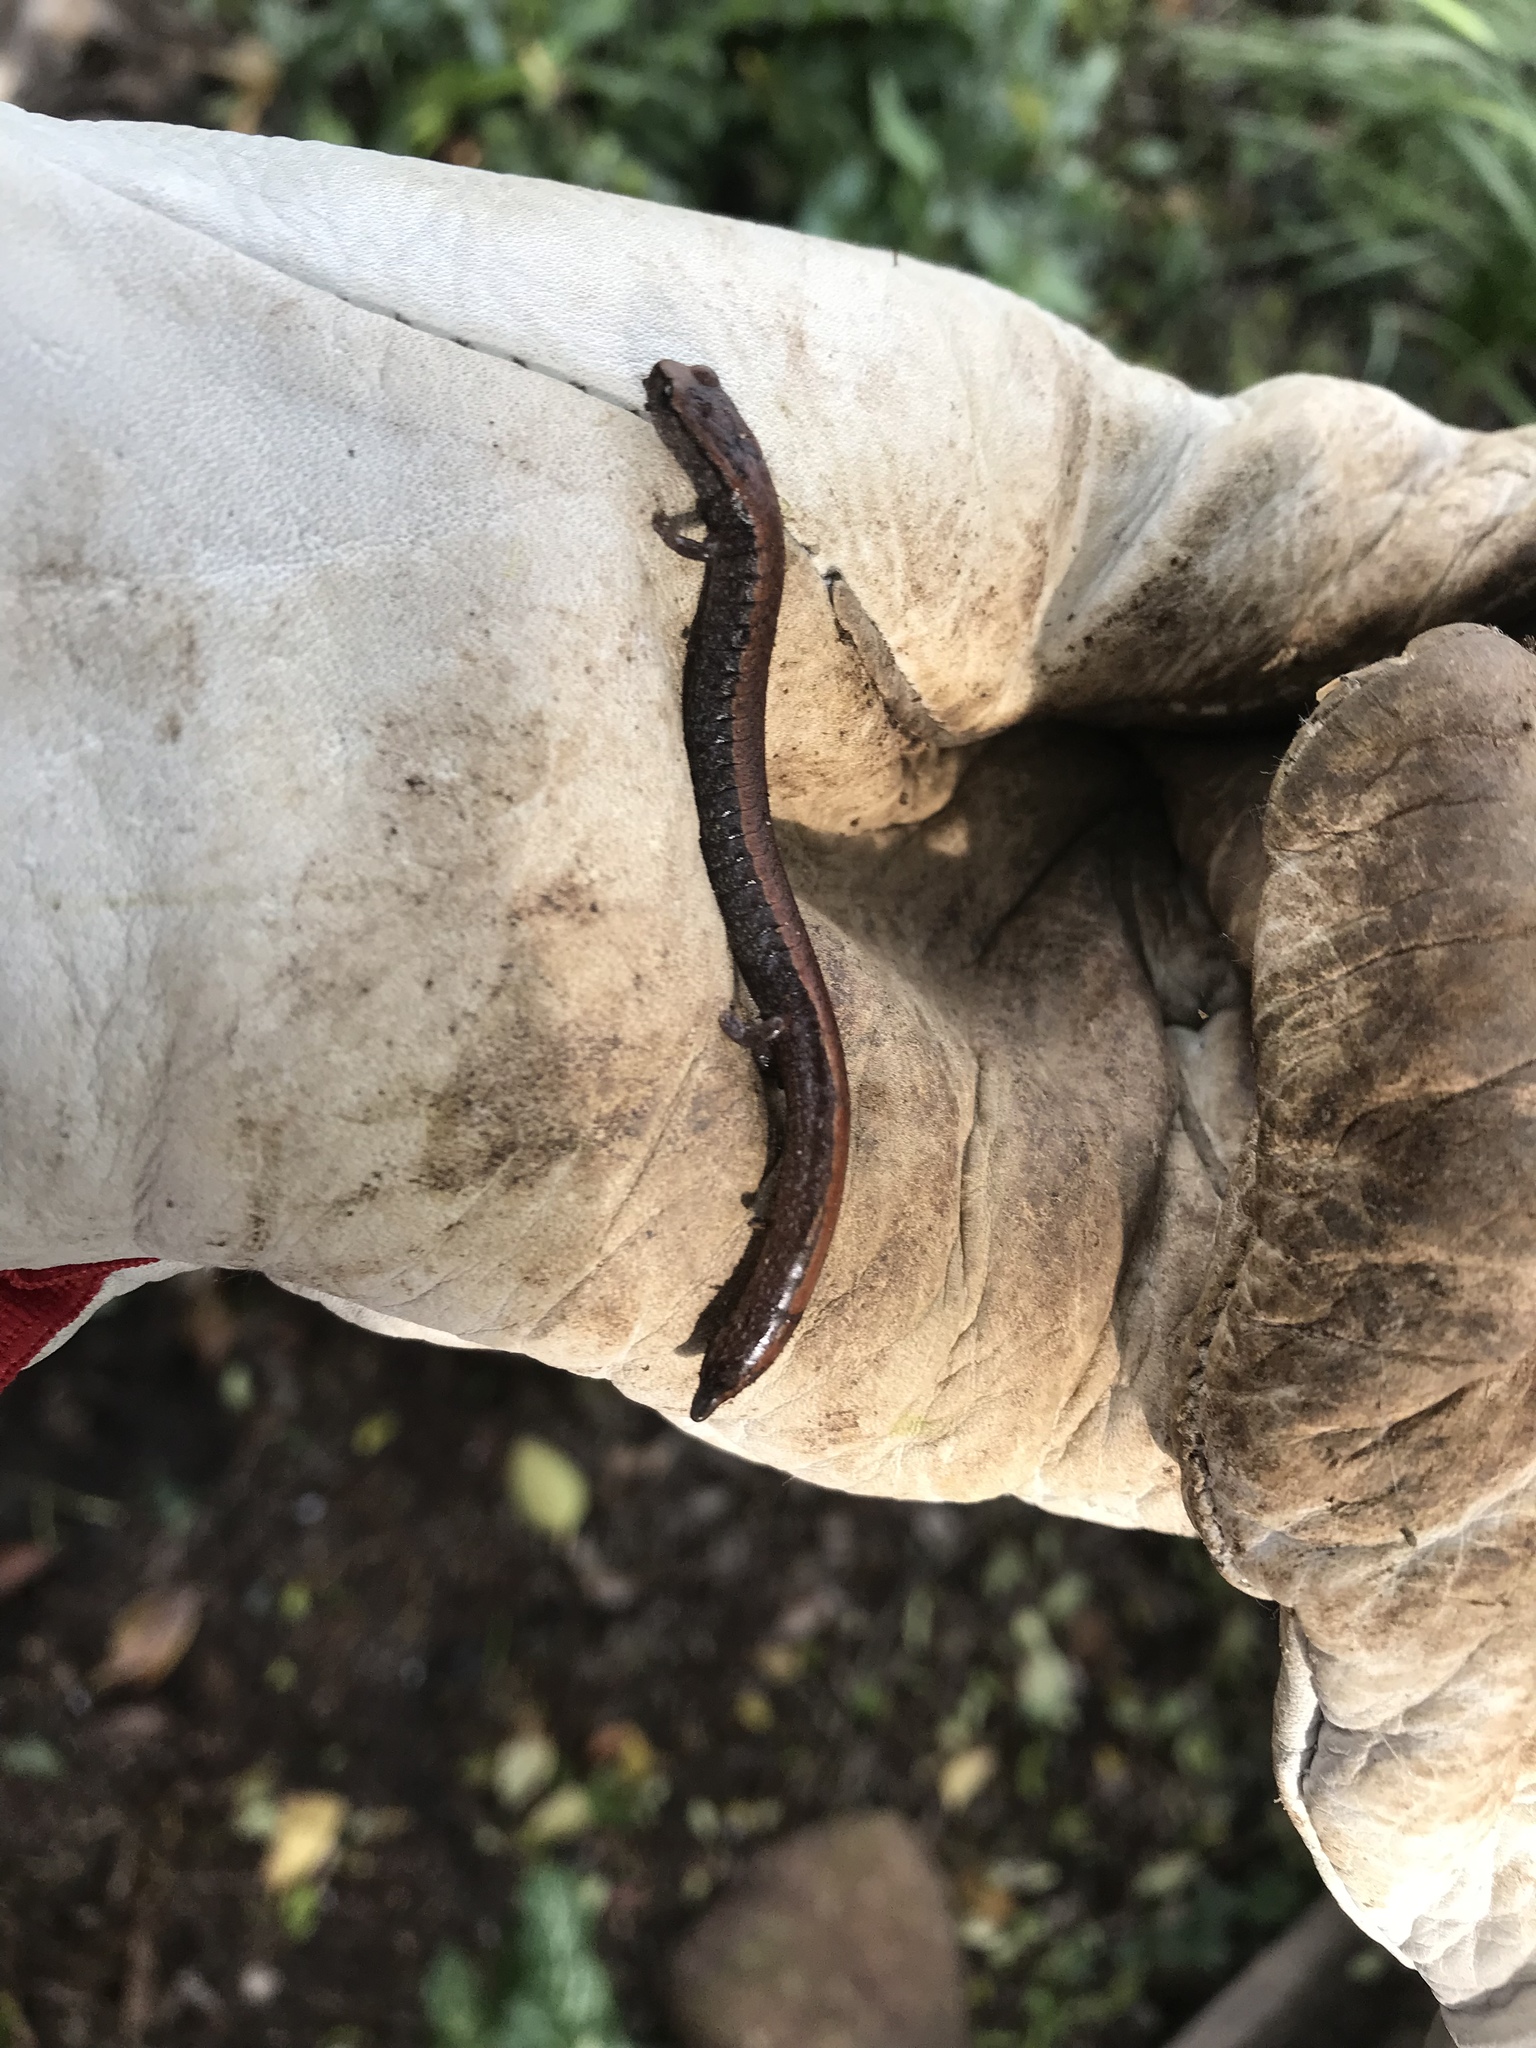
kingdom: Animalia
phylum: Chordata
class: Amphibia
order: Caudata
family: Plethodontidae
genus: Batrachoseps
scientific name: Batrachoseps attenuatus
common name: California slender salamander
